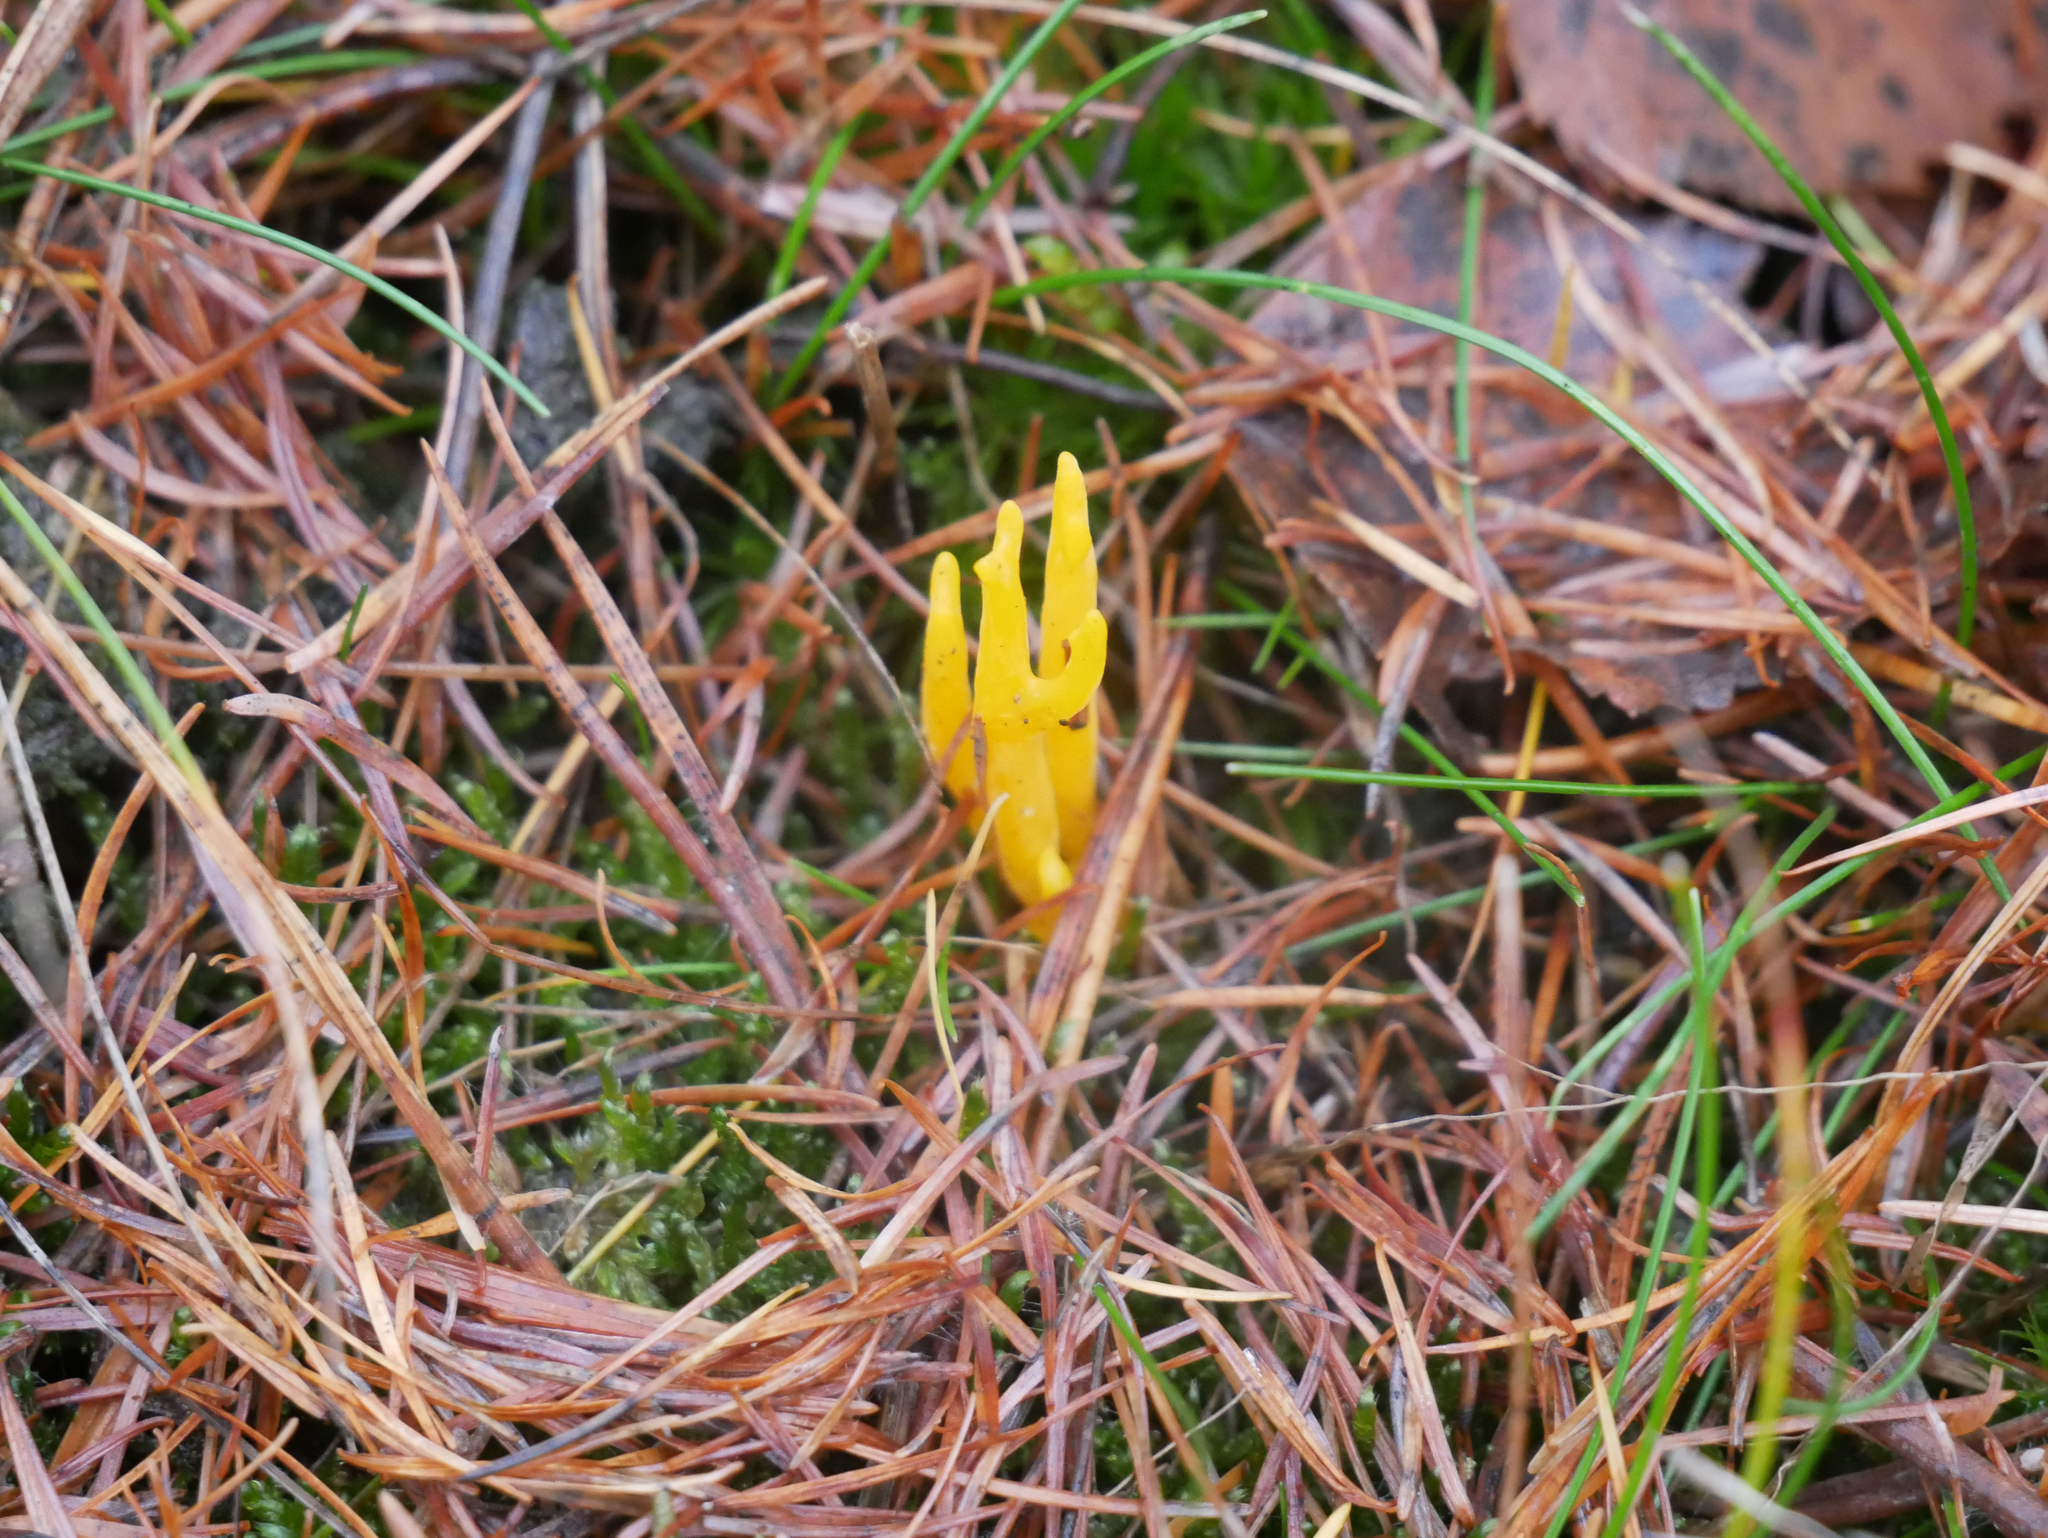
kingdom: Fungi
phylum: Basidiomycota
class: Dacrymycetes
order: Dacrymycetales
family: Dacrymycetaceae
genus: Calocera
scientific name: Calocera viscosa
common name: Yellow stagshorn
